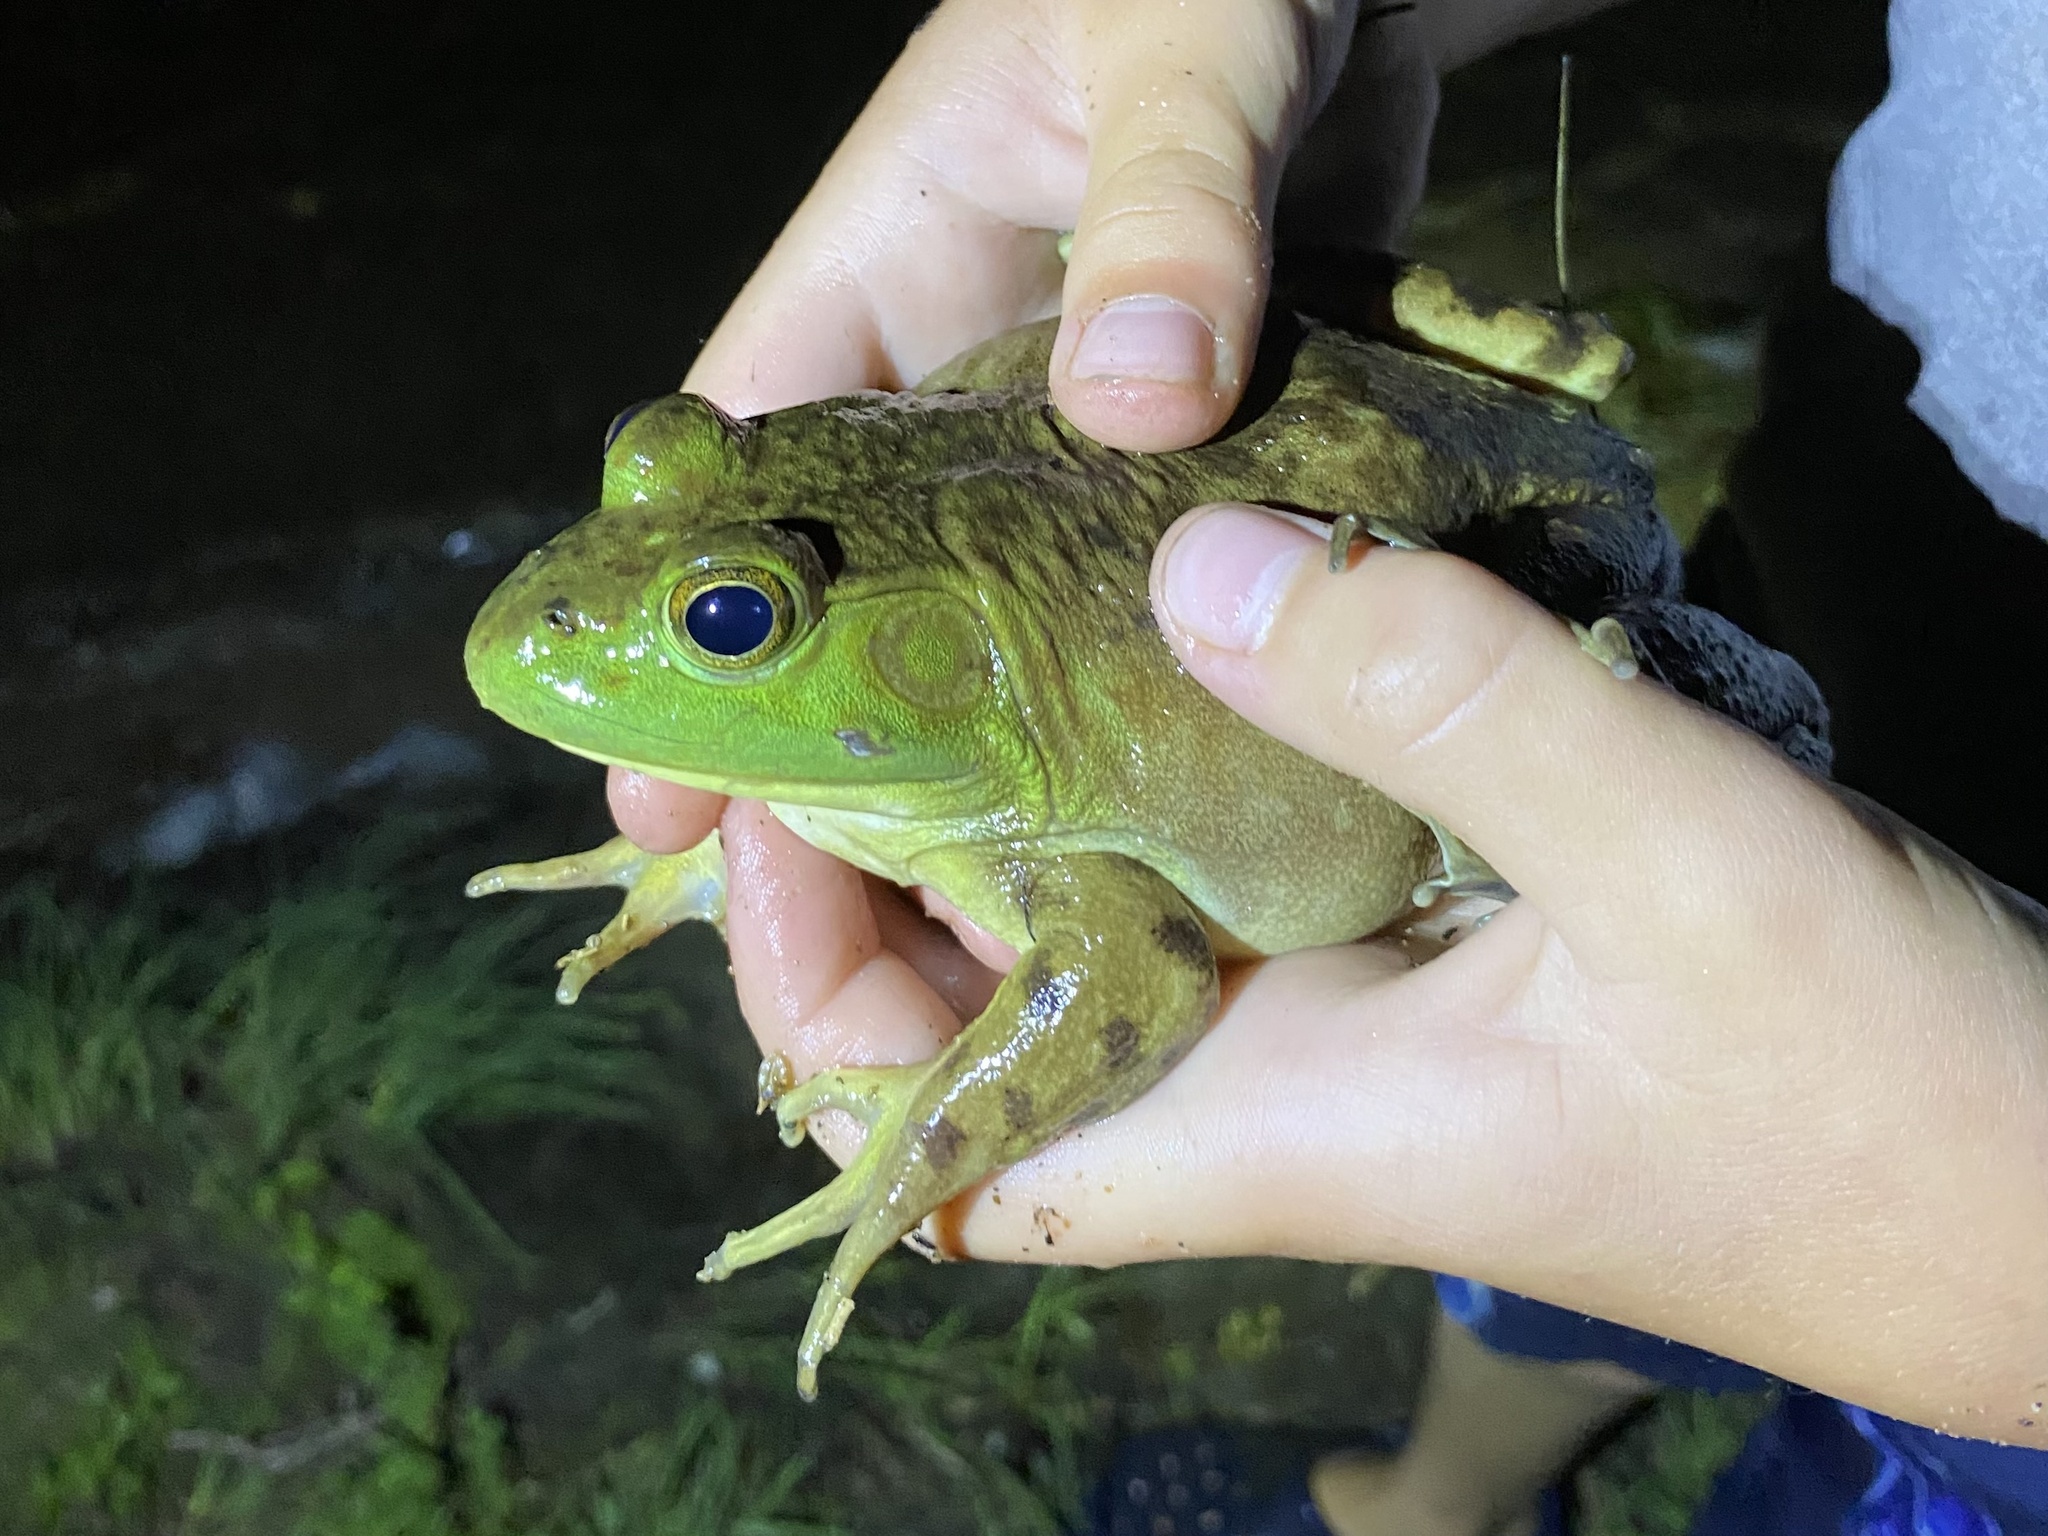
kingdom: Animalia
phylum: Chordata
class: Amphibia
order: Anura
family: Ranidae
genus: Lithobates
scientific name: Lithobates catesbeianus
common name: American bullfrog
